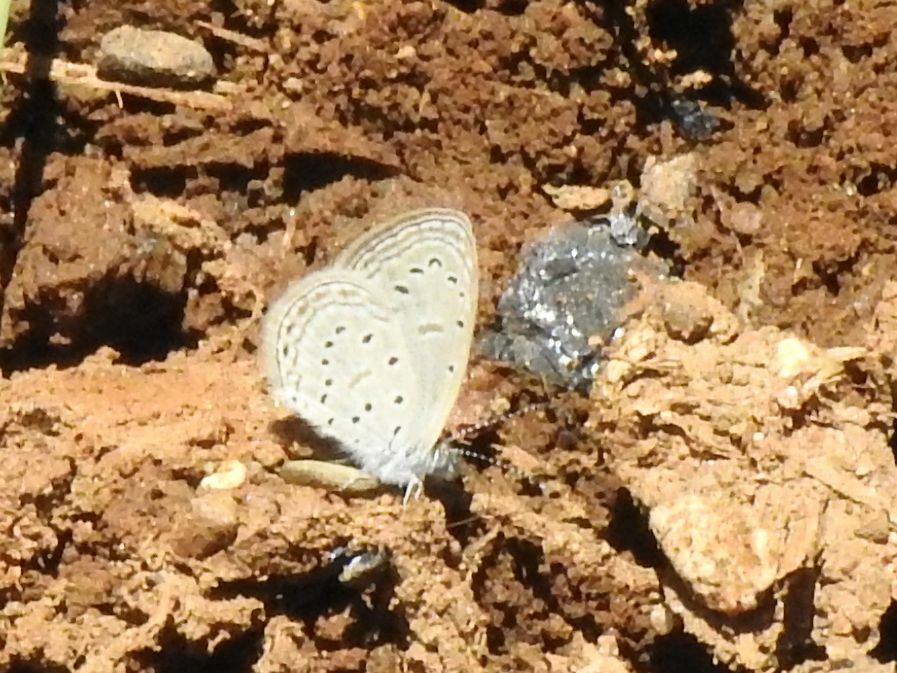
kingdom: Animalia
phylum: Arthropoda
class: Insecta
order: Lepidoptera
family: Lycaenidae
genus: Zizula
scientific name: Zizula hylax
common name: Gaika blue
